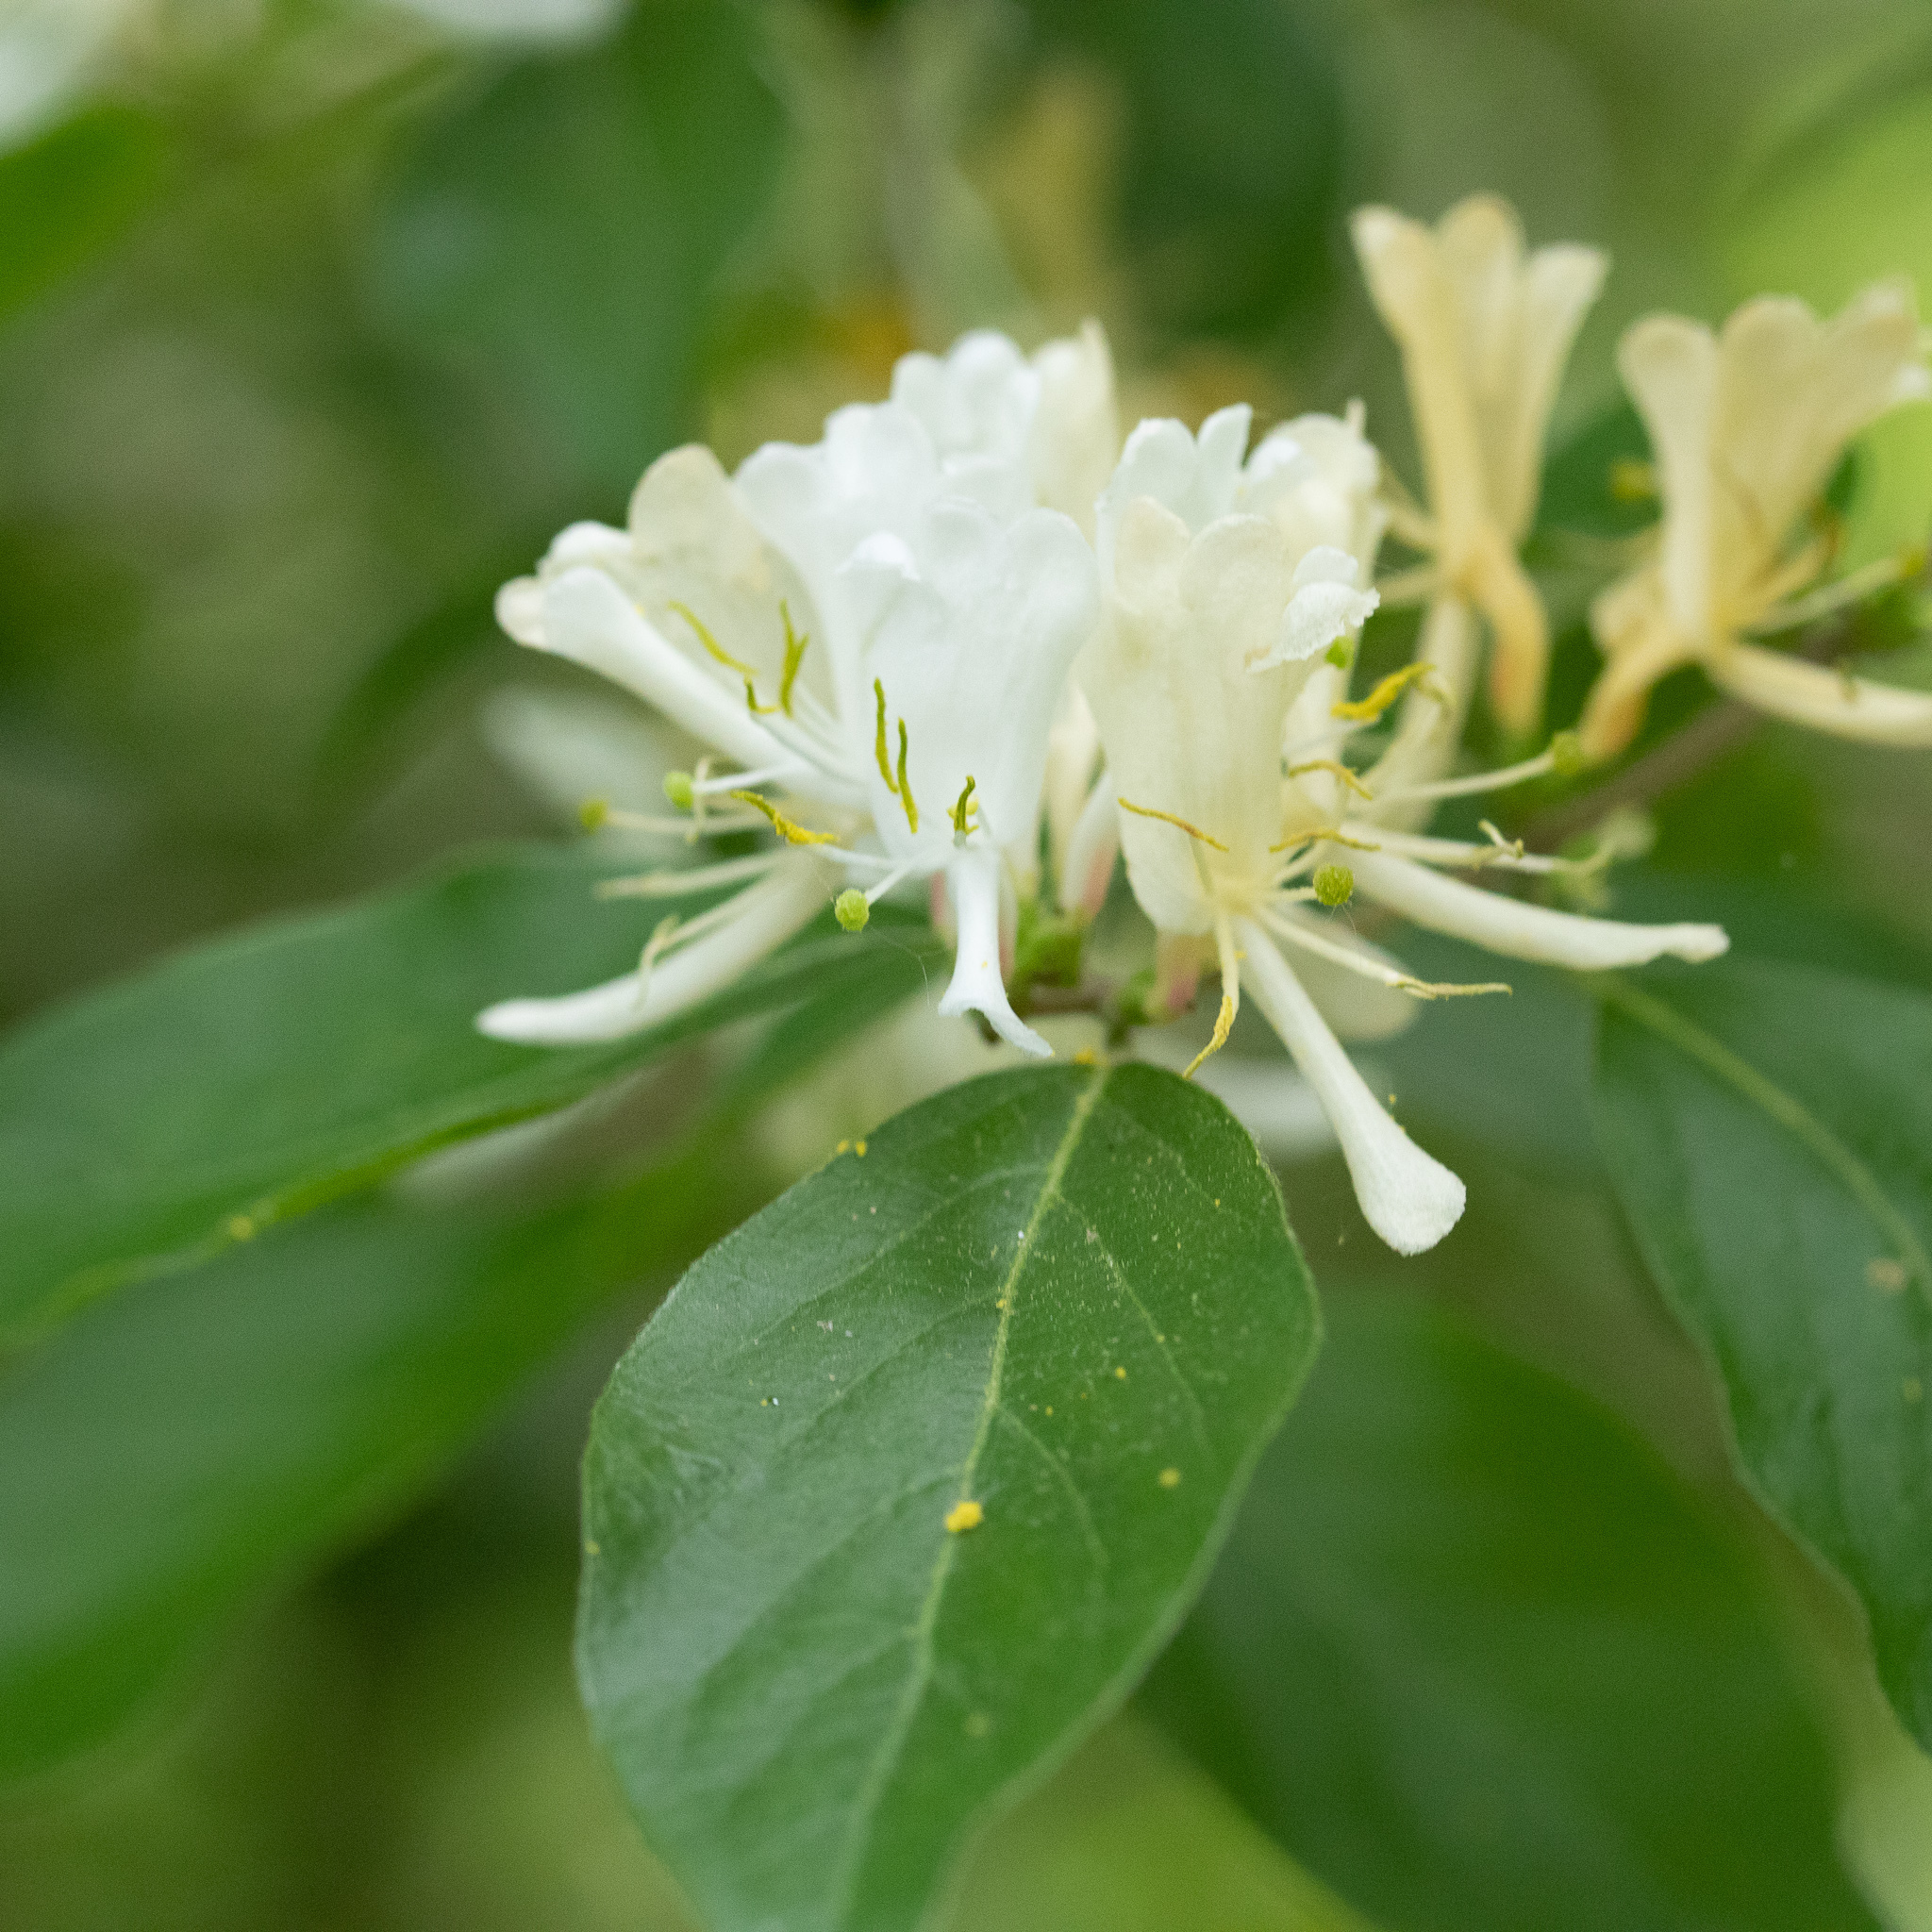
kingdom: Plantae
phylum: Tracheophyta
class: Magnoliopsida
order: Dipsacales
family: Caprifoliaceae
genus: Lonicera
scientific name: Lonicera maackii
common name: Amur honeysuckle
